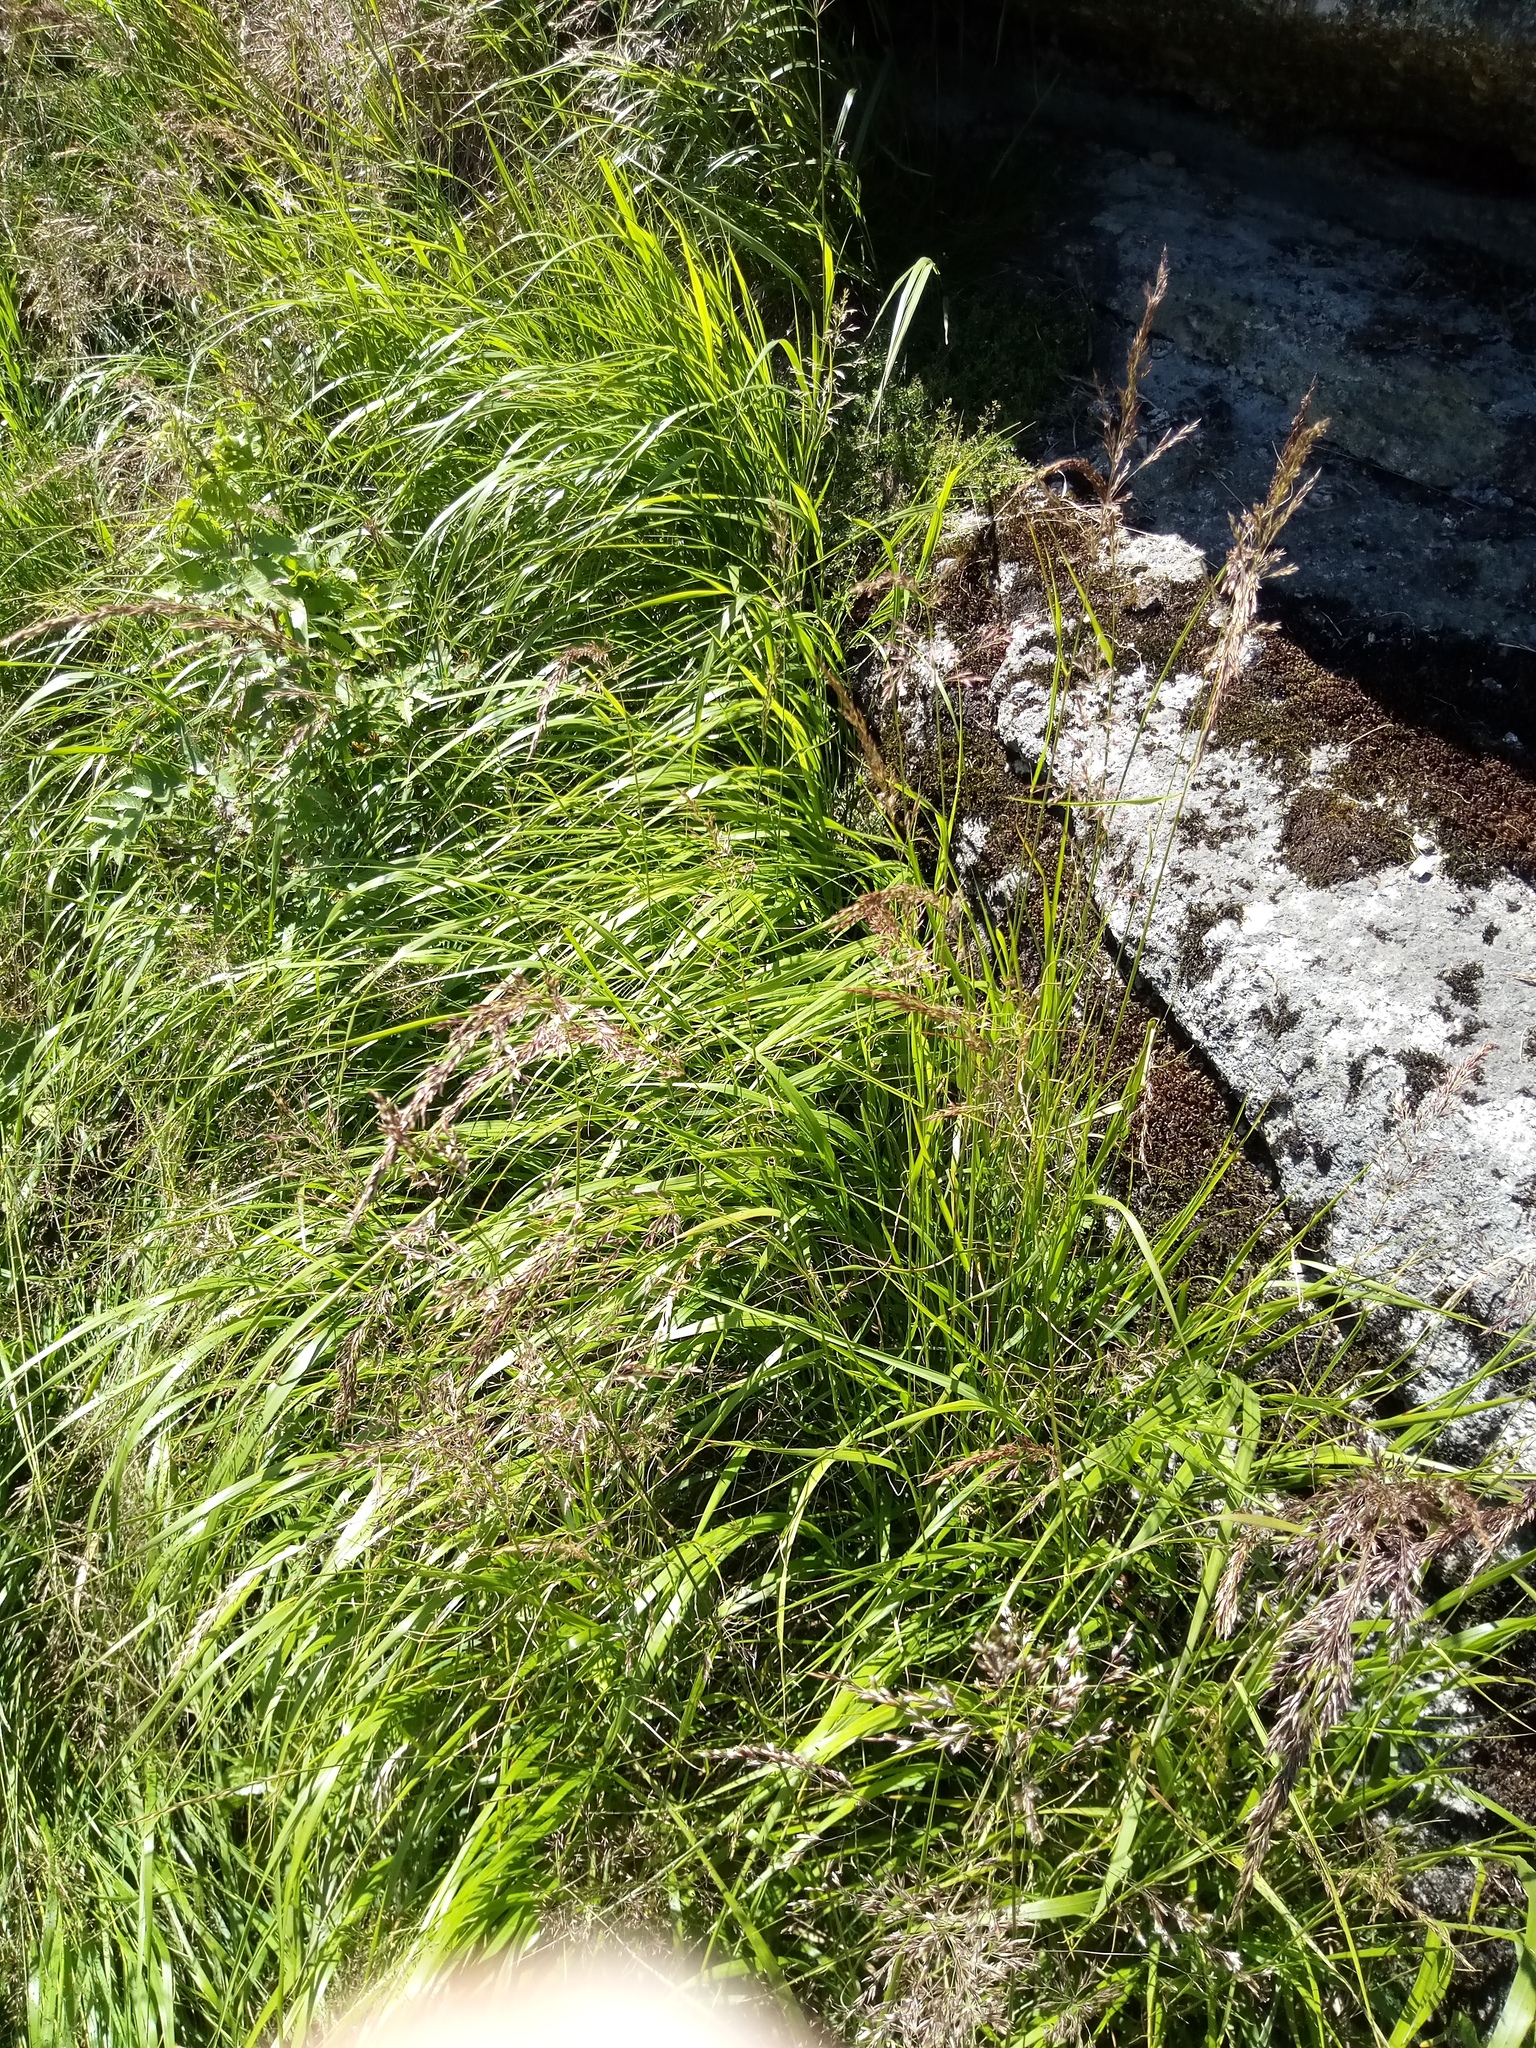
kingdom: Plantae
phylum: Tracheophyta
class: Liliopsida
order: Poales
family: Poaceae
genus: Calamagrostis
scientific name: Calamagrostis villosa
